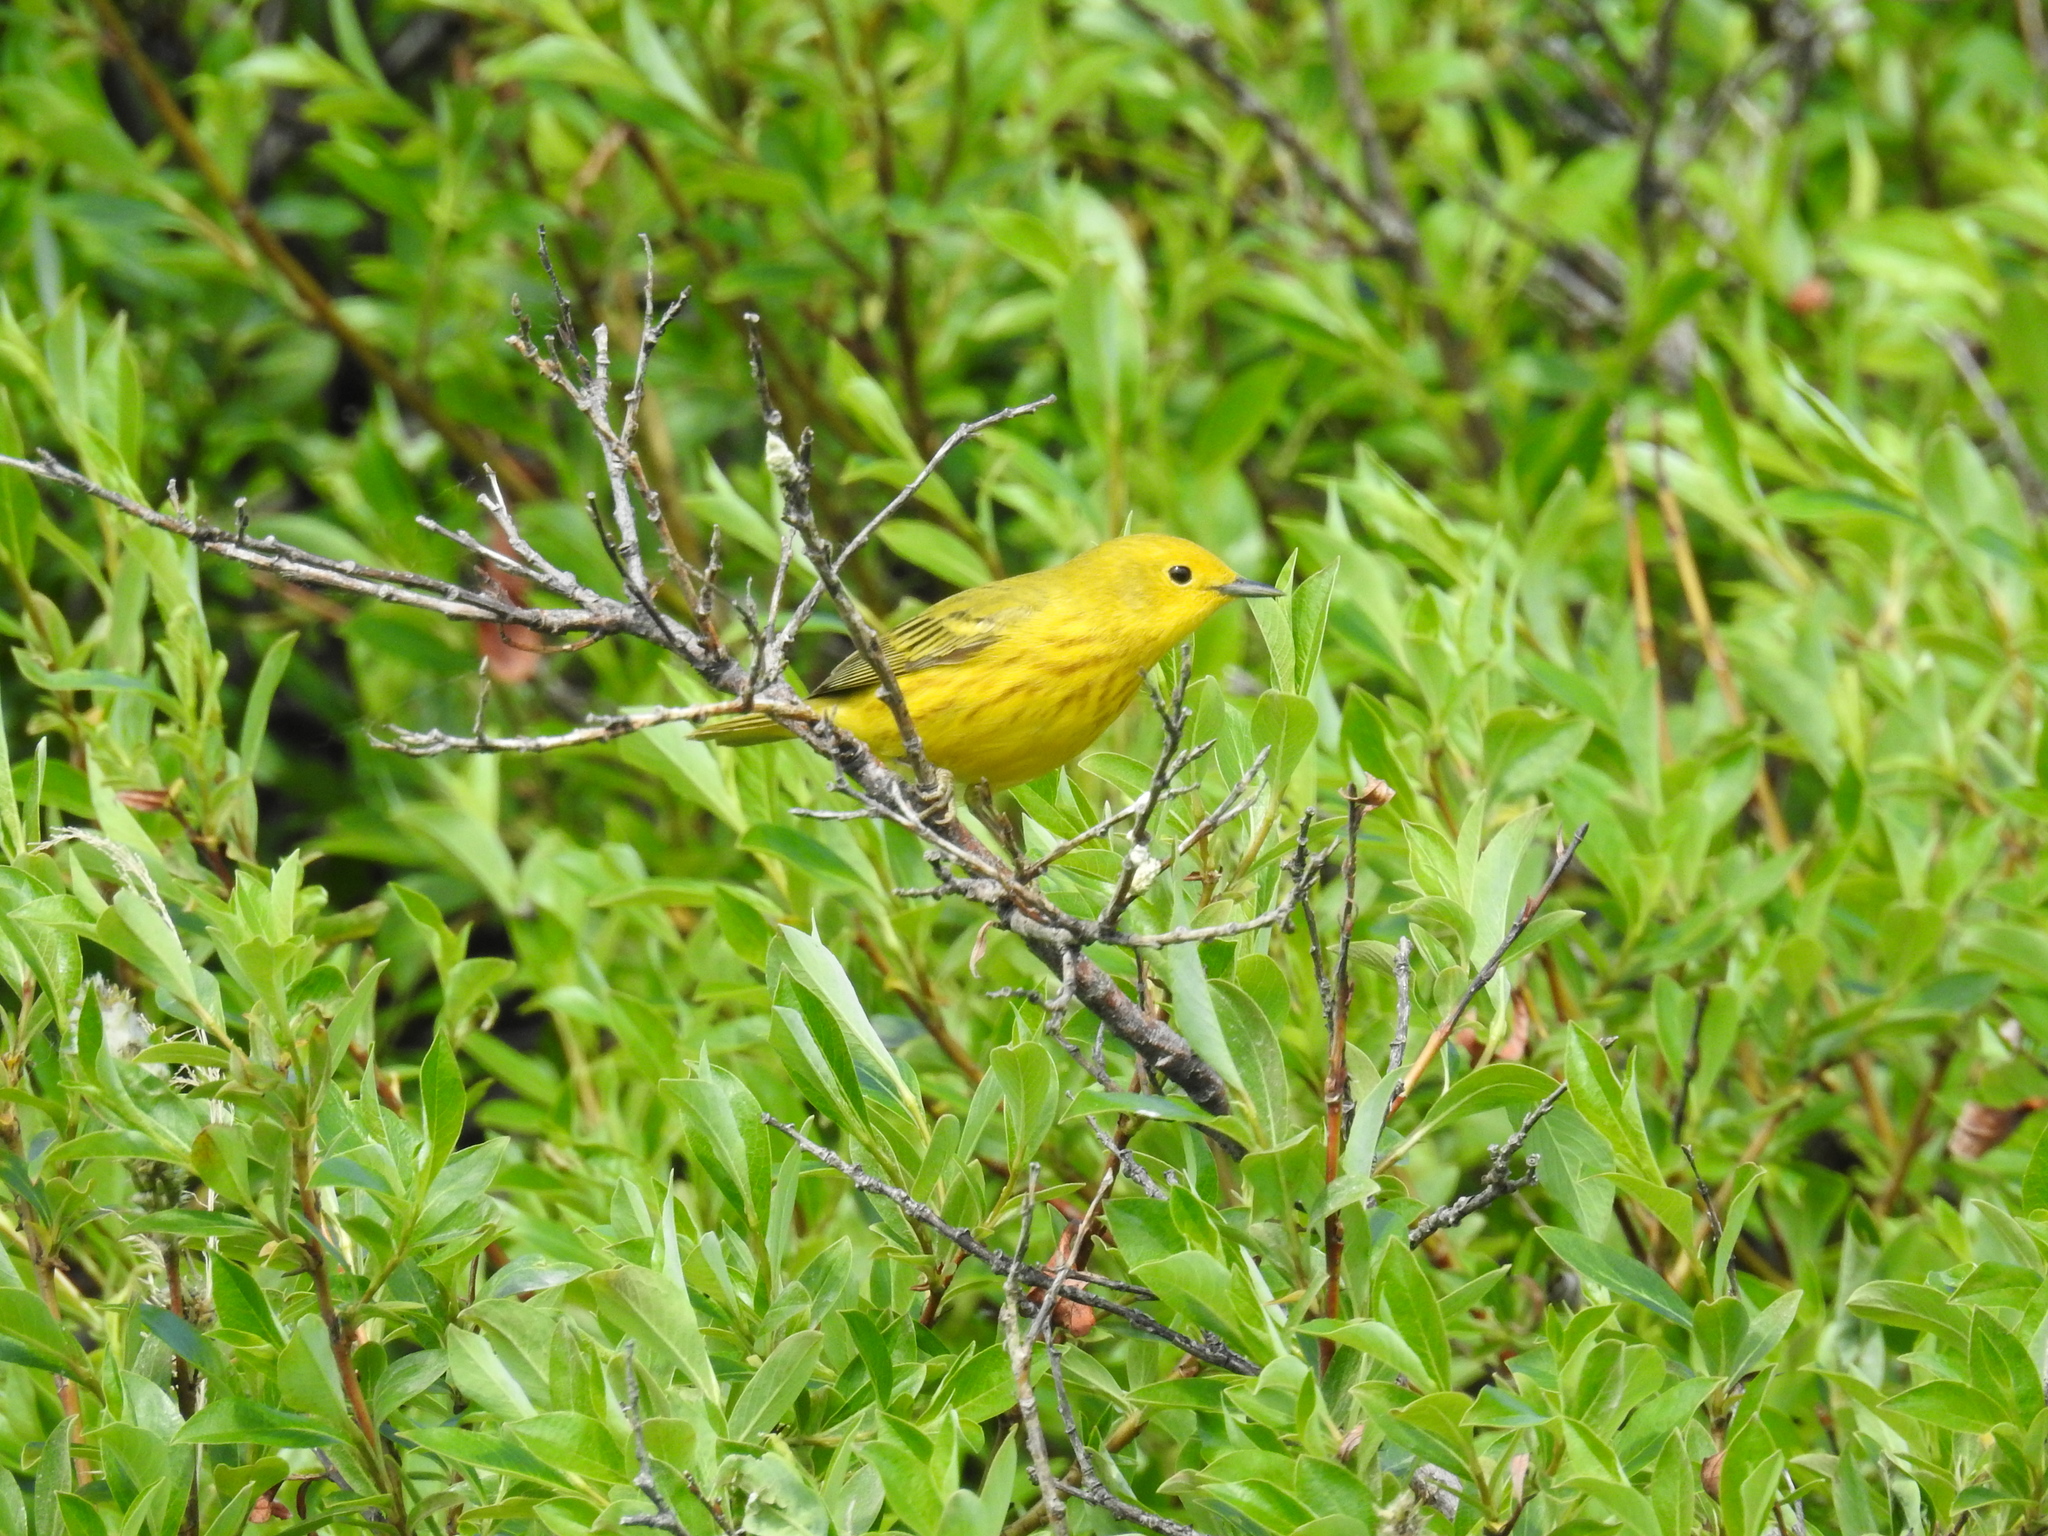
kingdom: Animalia
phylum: Chordata
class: Aves
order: Passeriformes
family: Parulidae
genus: Setophaga
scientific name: Setophaga petechia
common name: Yellow warbler
